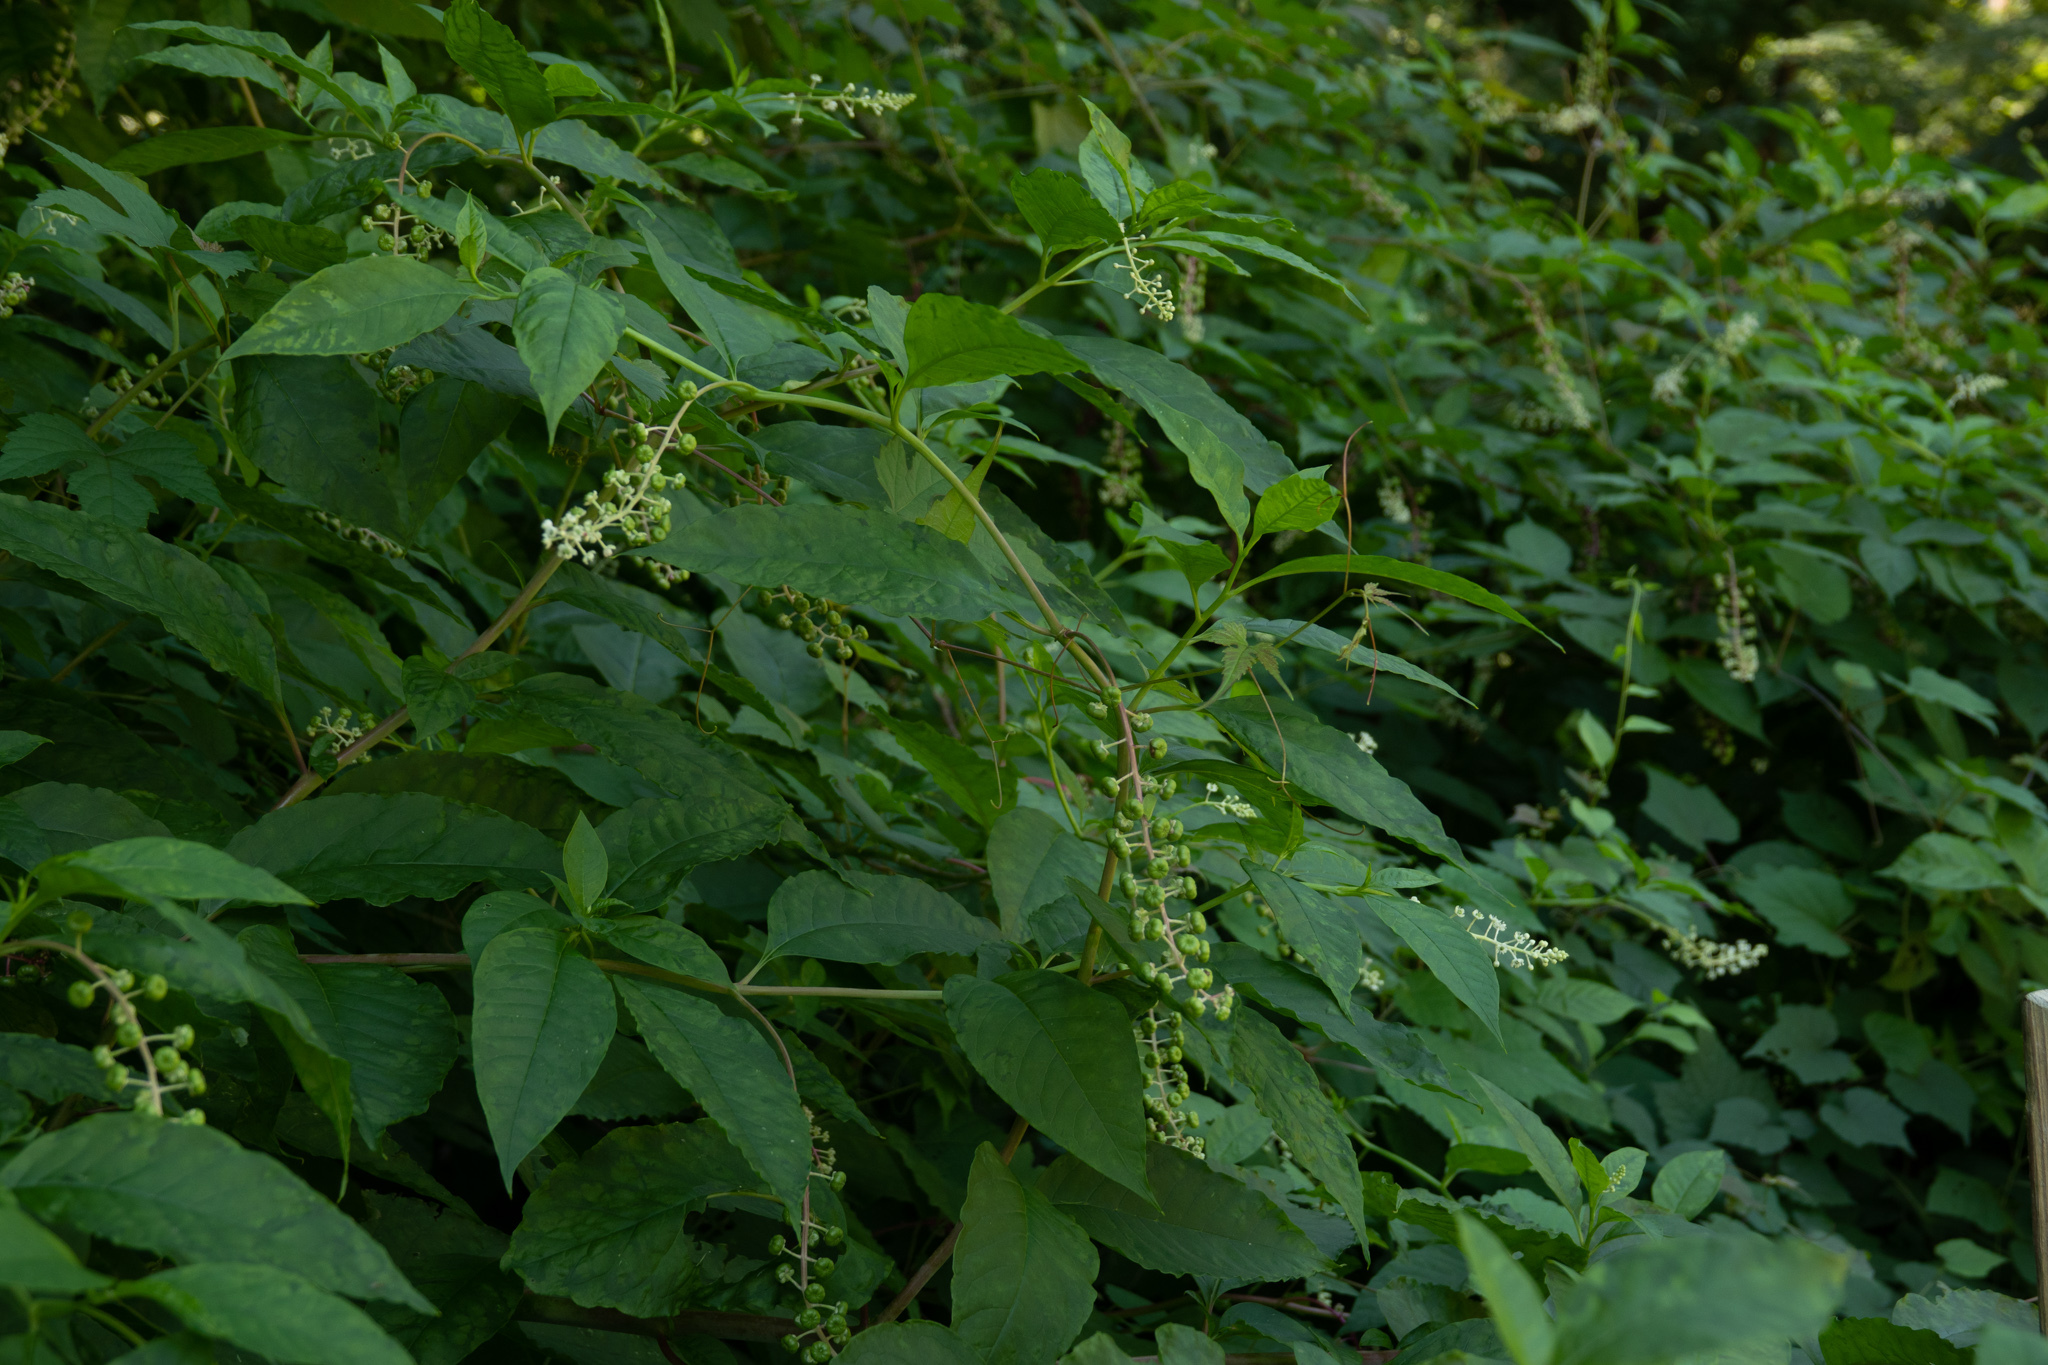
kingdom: Plantae
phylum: Tracheophyta
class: Magnoliopsida
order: Caryophyllales
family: Phytolaccaceae
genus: Phytolacca
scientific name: Phytolacca americana
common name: American pokeweed
